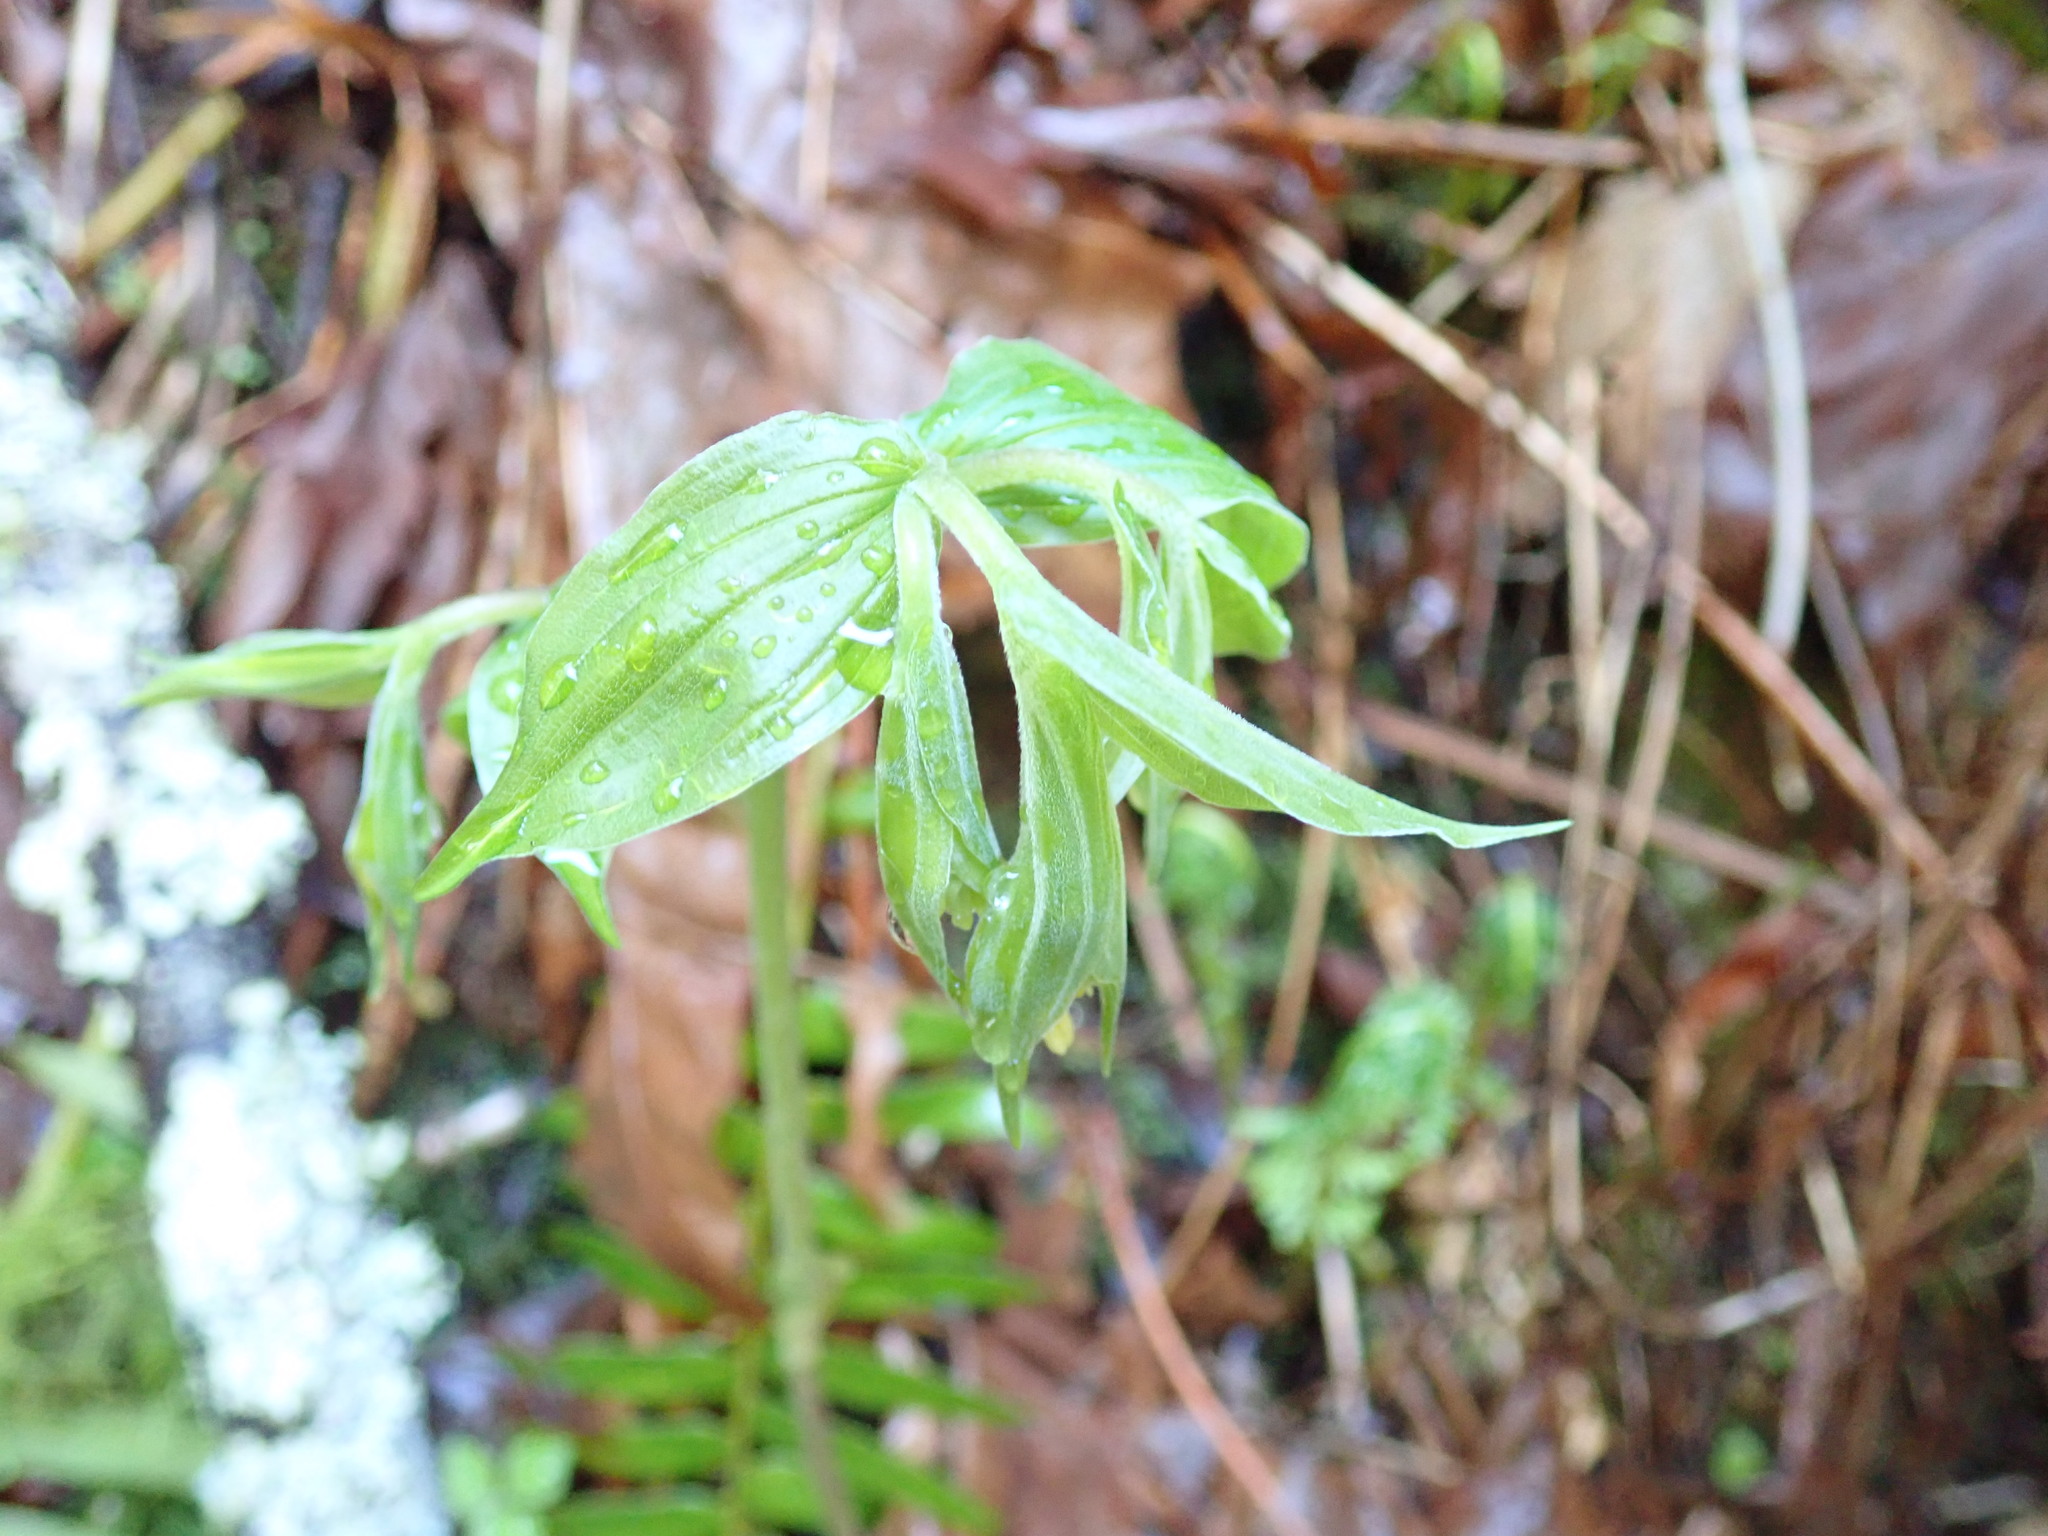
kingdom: Plantae
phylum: Tracheophyta
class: Liliopsida
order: Liliales
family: Liliaceae
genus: Prosartes
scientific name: Prosartes hookeri
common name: Fairy-bells
